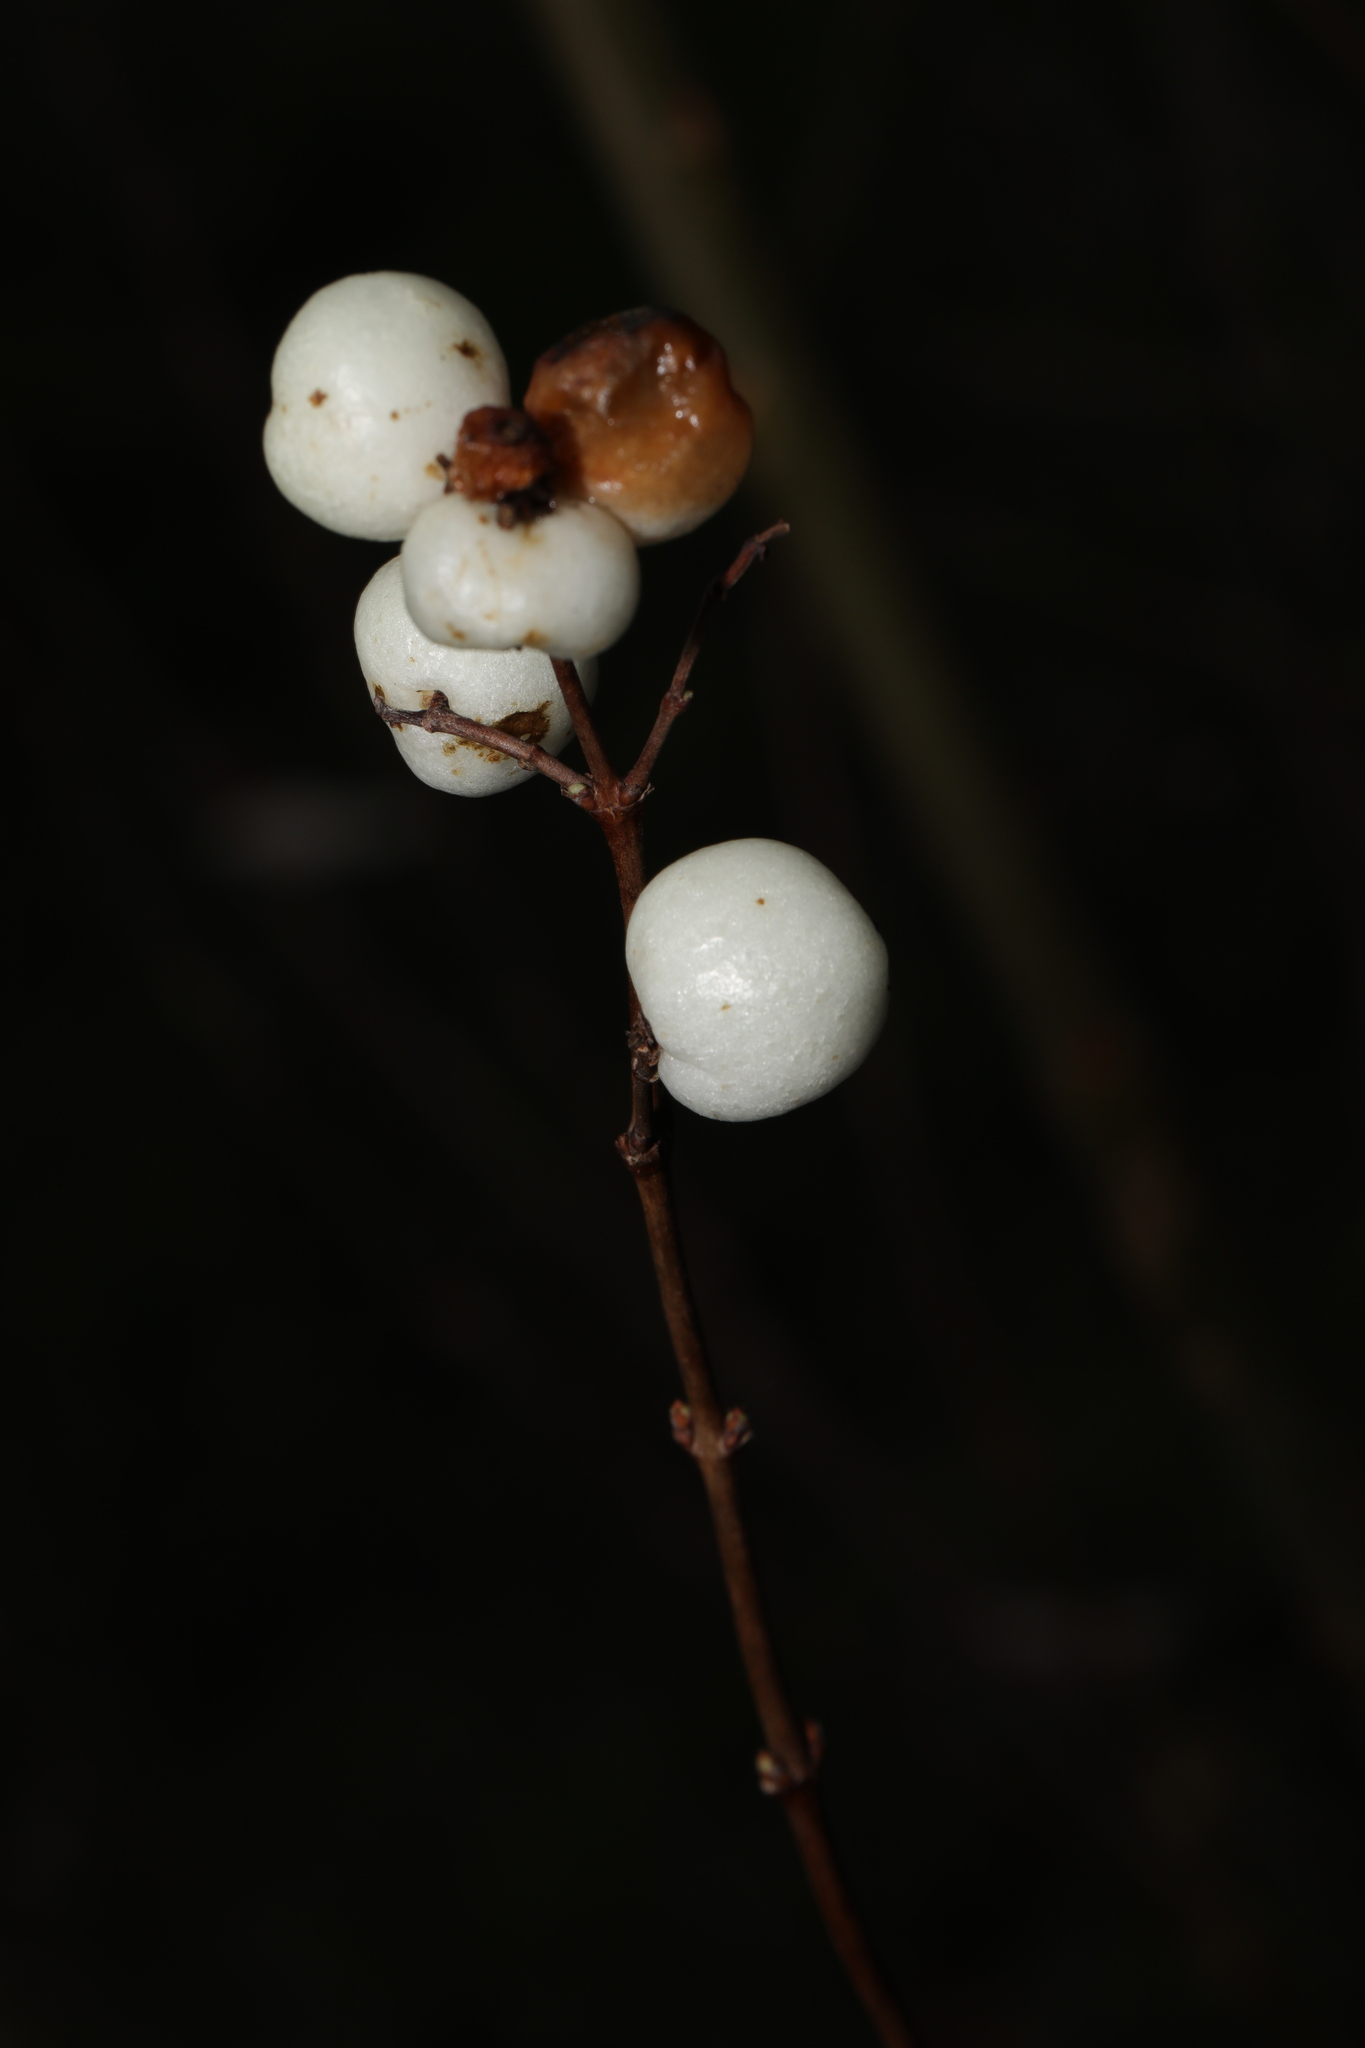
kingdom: Plantae
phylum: Tracheophyta
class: Magnoliopsida
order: Dipsacales
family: Caprifoliaceae
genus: Symphoricarpos
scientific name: Symphoricarpos albus
